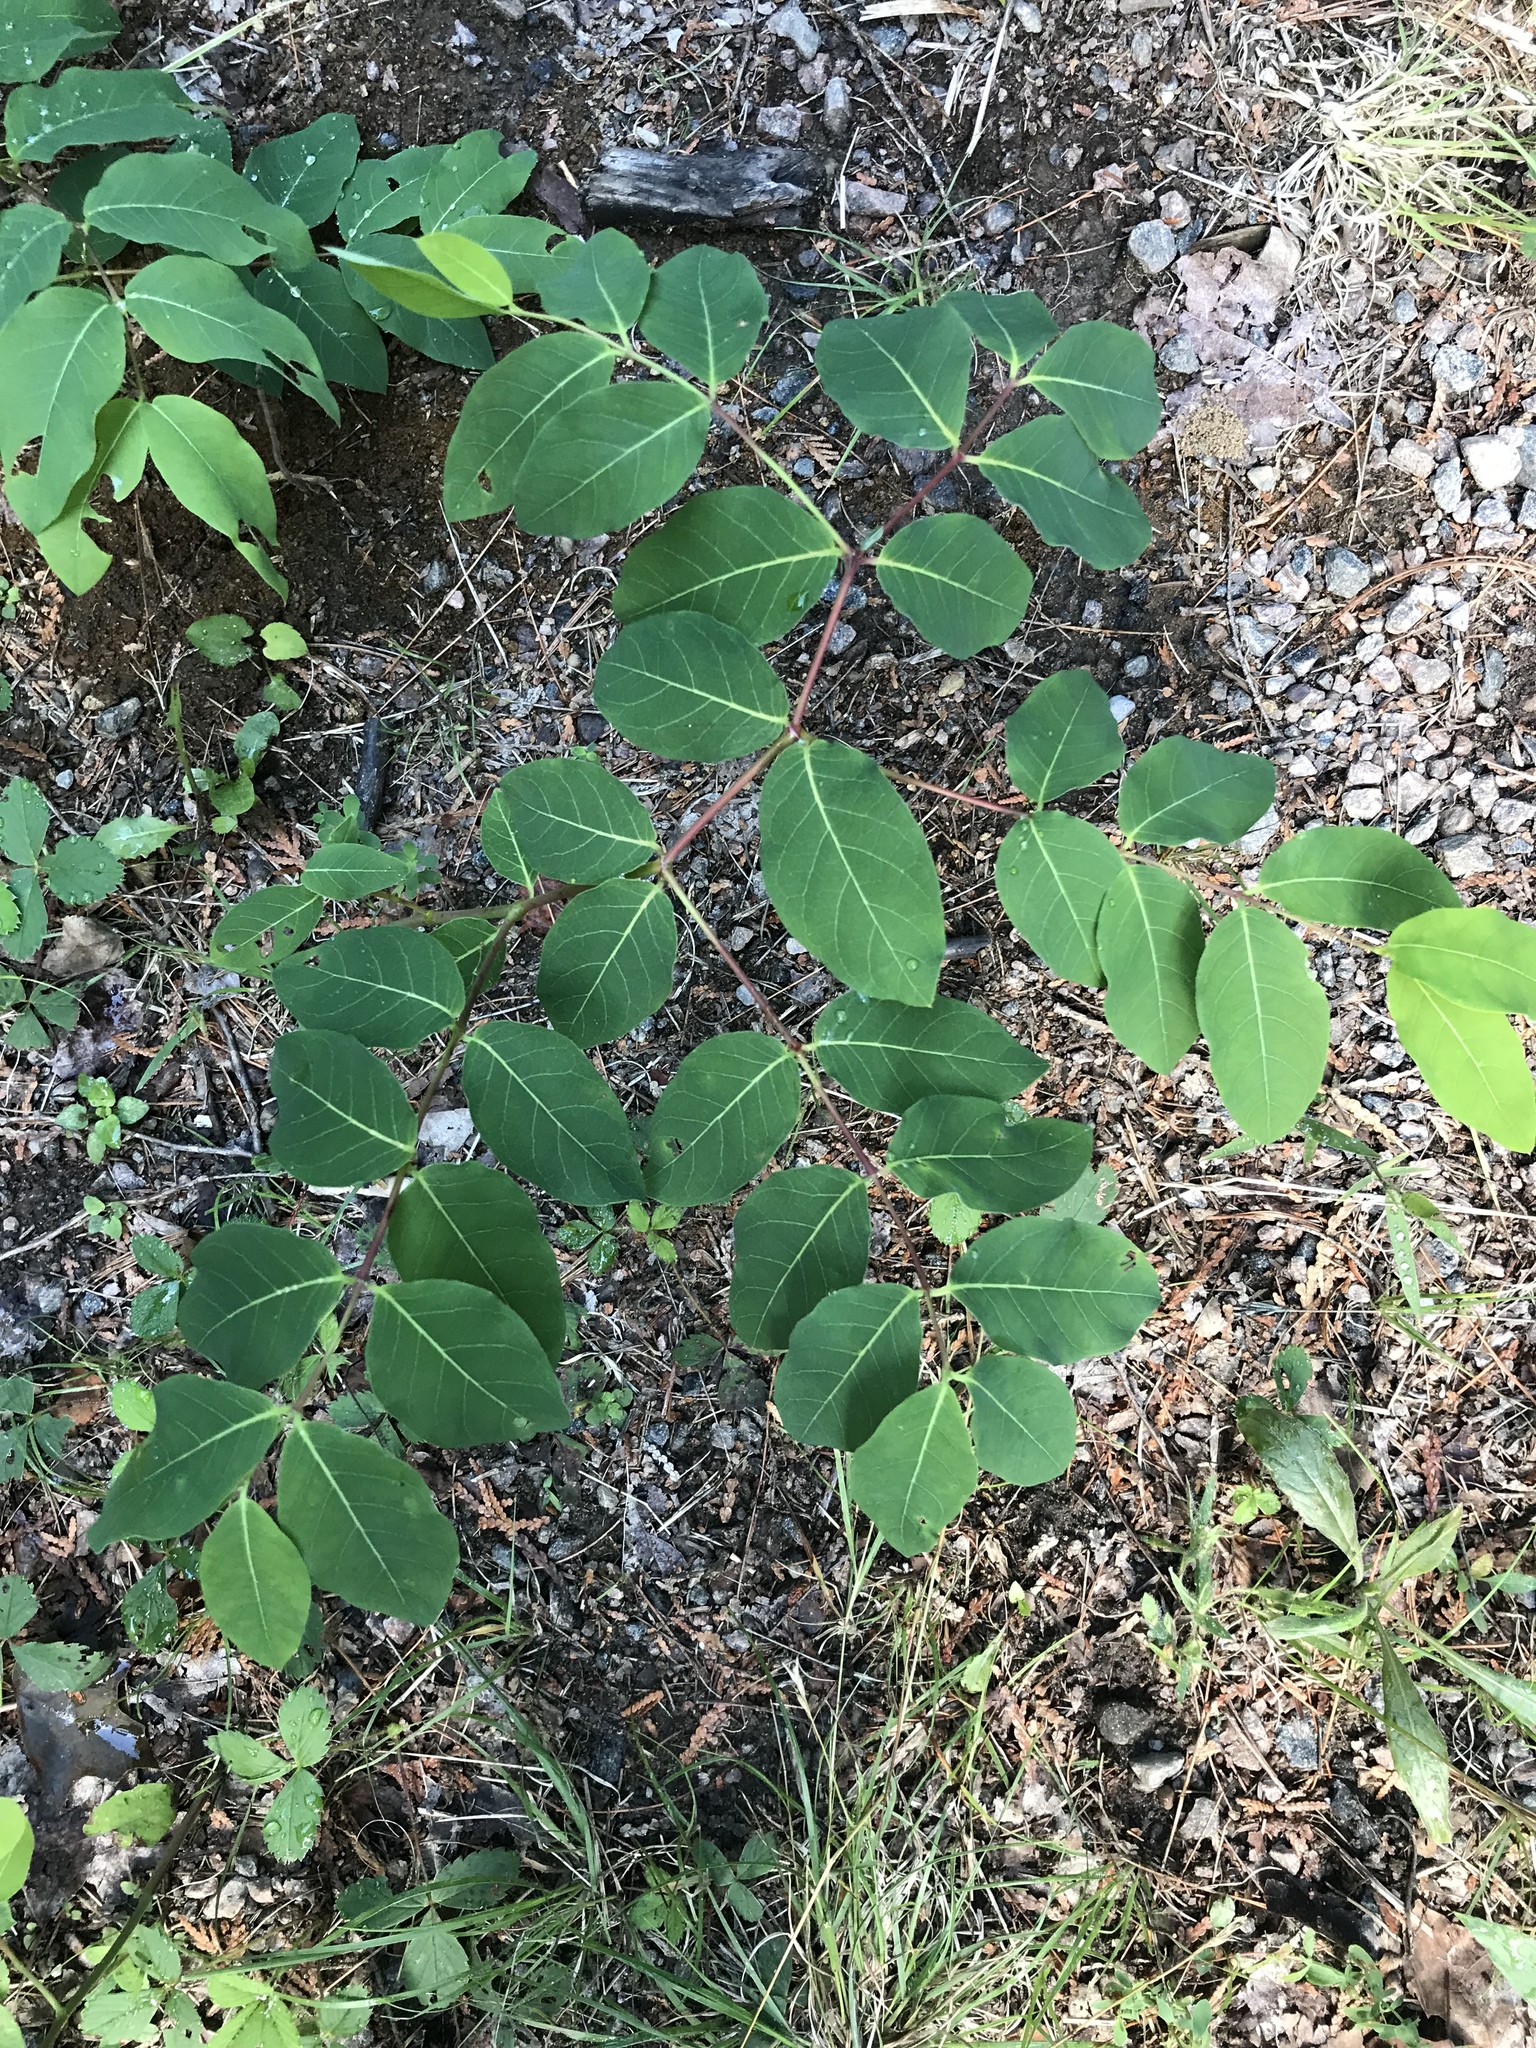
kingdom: Plantae
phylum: Tracheophyta
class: Magnoliopsida
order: Gentianales
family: Apocynaceae
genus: Apocynum
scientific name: Apocynum androsaemifolium
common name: Spreading dogbane
